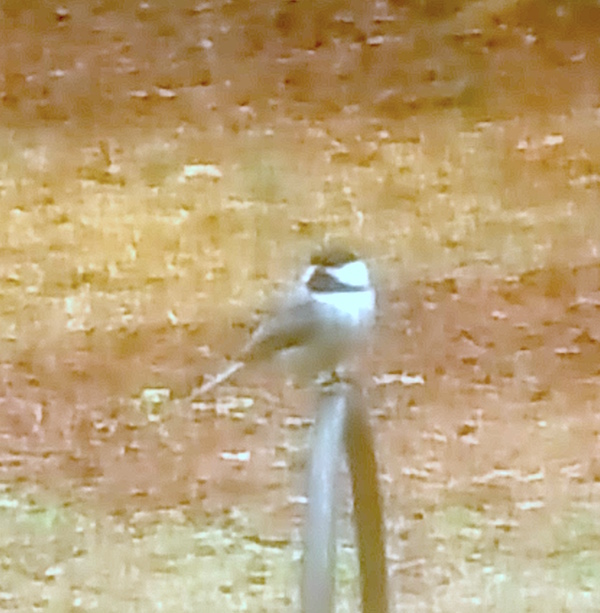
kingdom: Animalia
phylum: Chordata
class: Aves
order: Passeriformes
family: Paridae
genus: Poecile
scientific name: Poecile carolinensis
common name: Carolina chickadee
